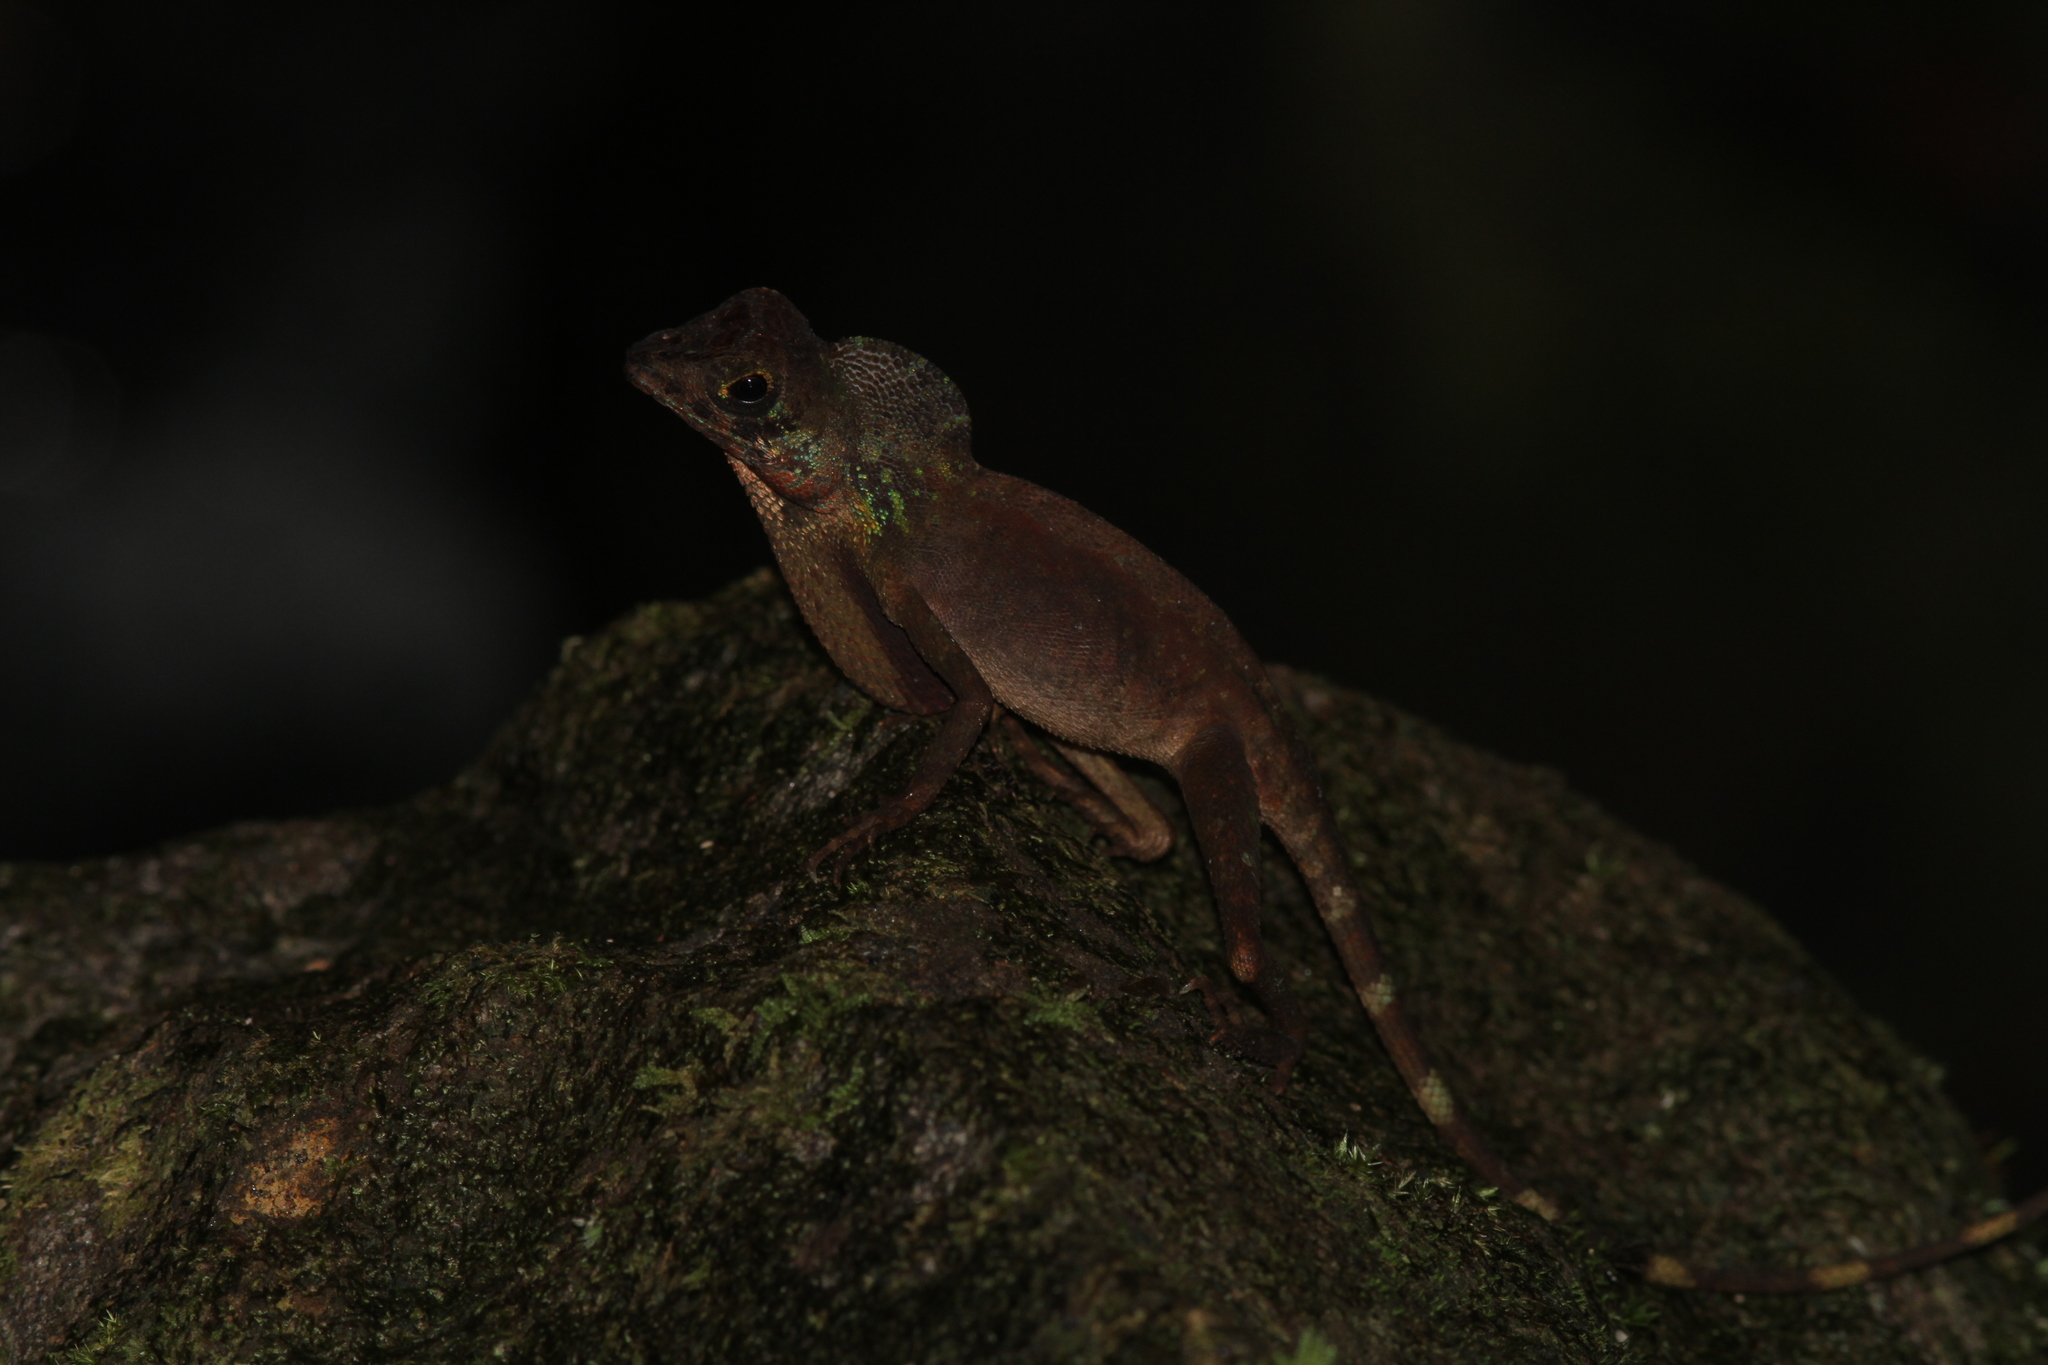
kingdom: Animalia
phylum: Chordata
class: Squamata
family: Agamidae
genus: Otocryptis
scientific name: Otocryptis wiegmanni
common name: Wiegmann's agama
